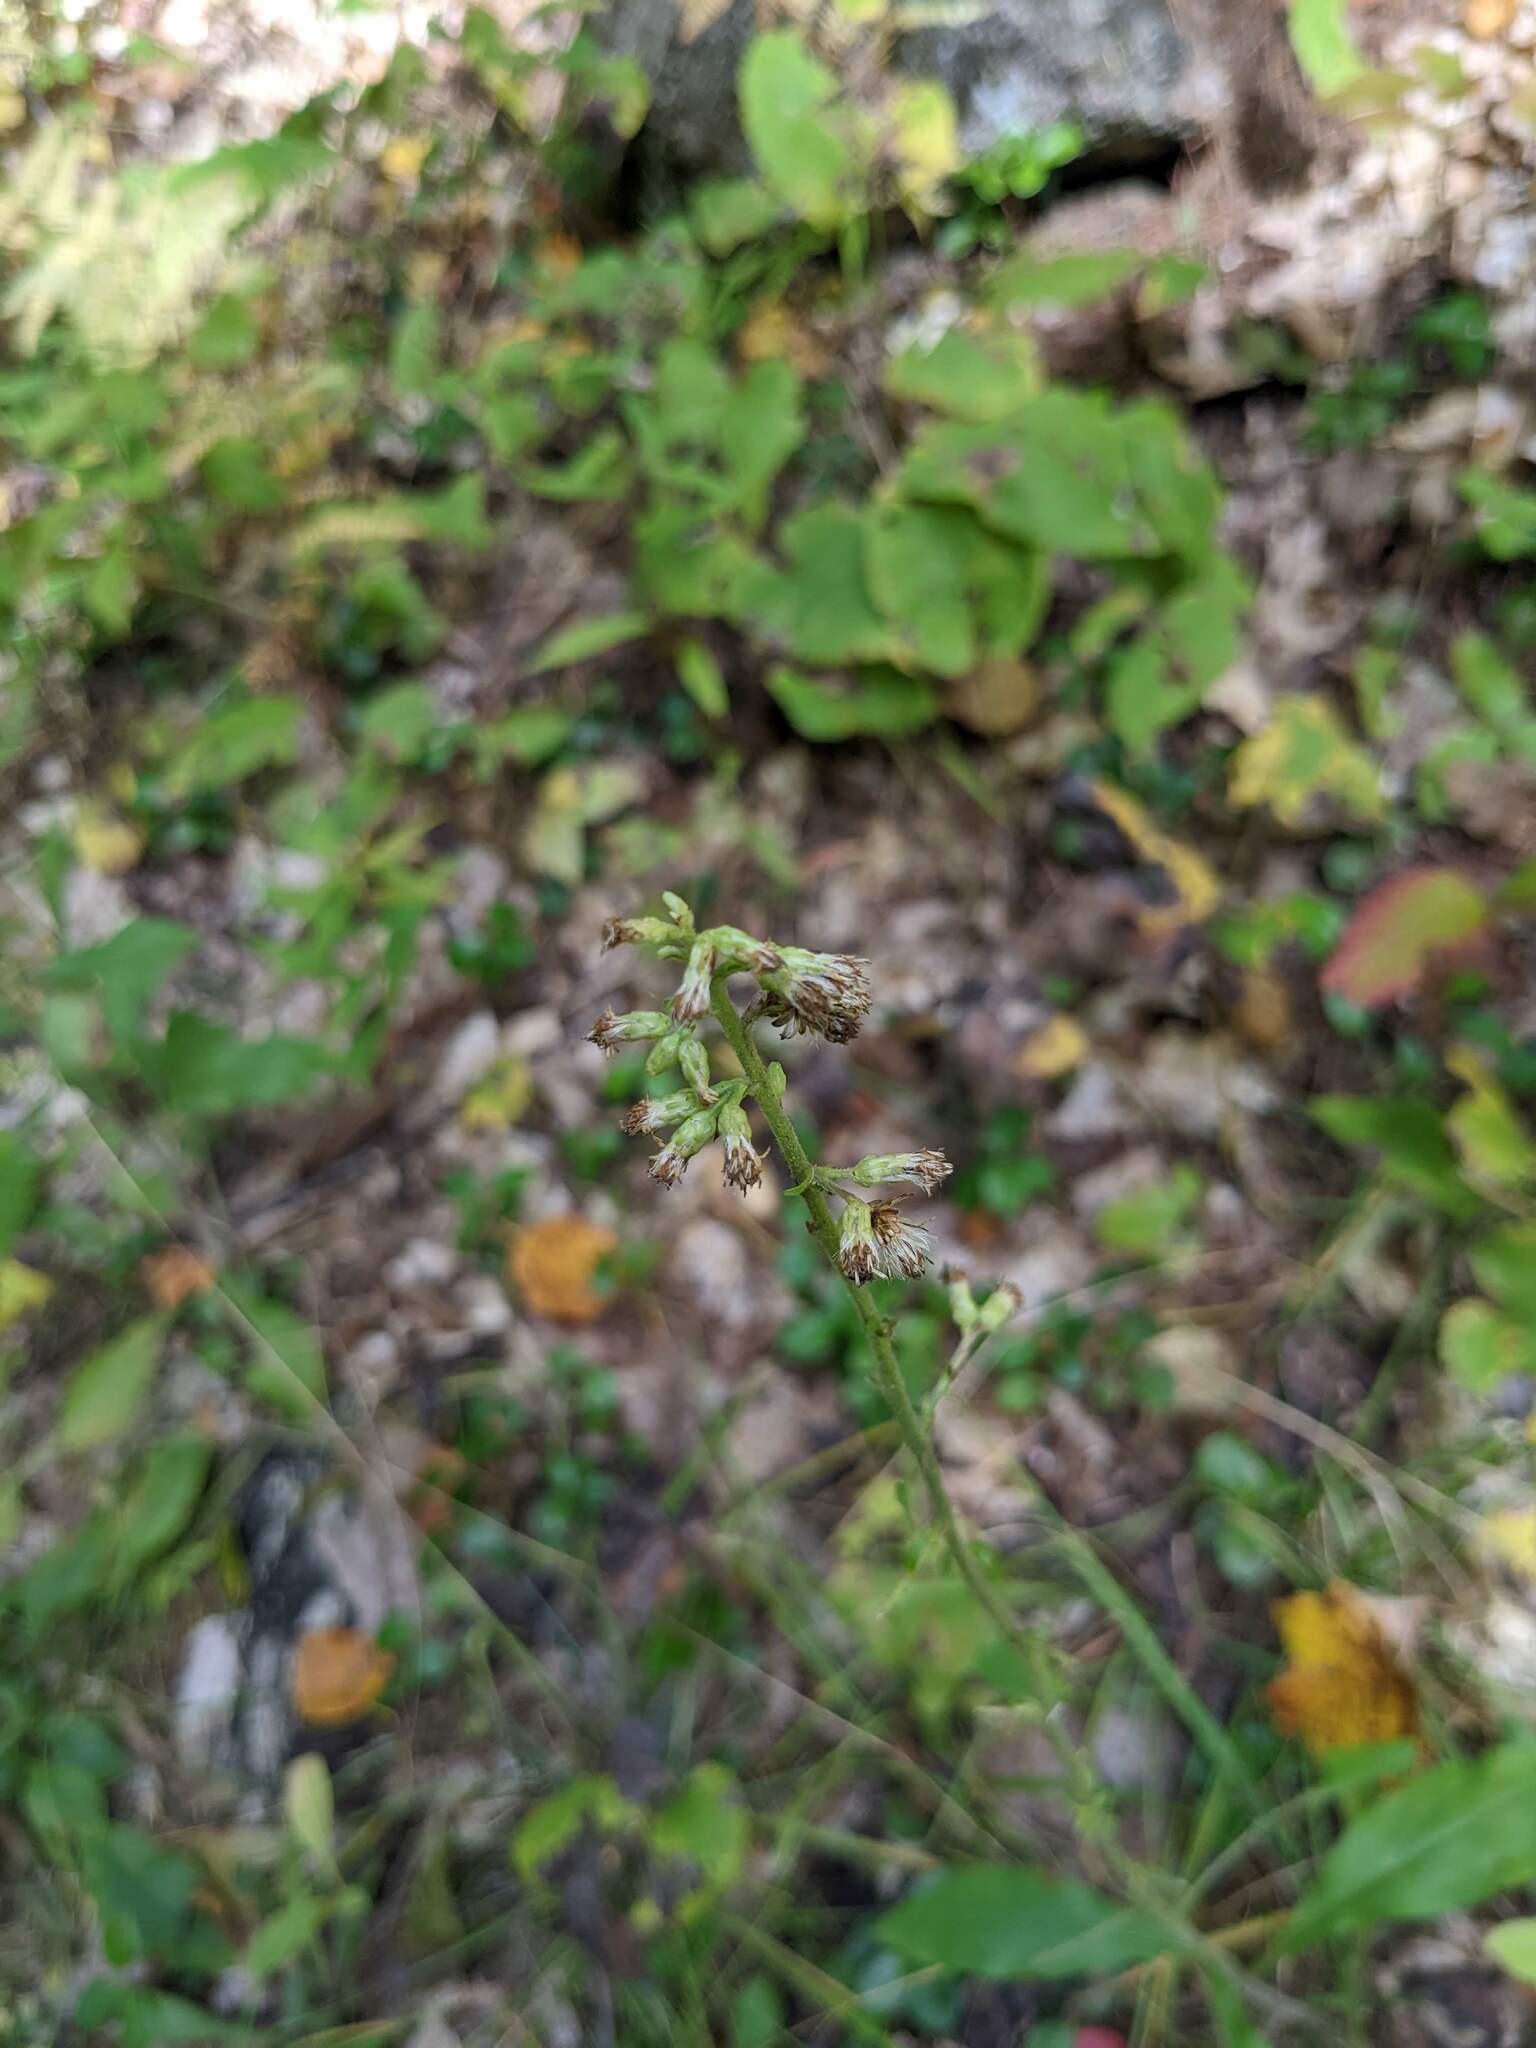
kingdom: Plantae
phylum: Tracheophyta
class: Magnoliopsida
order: Asterales
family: Asteraceae
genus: Solidago
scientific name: Solidago bicolor
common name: Silverrod
